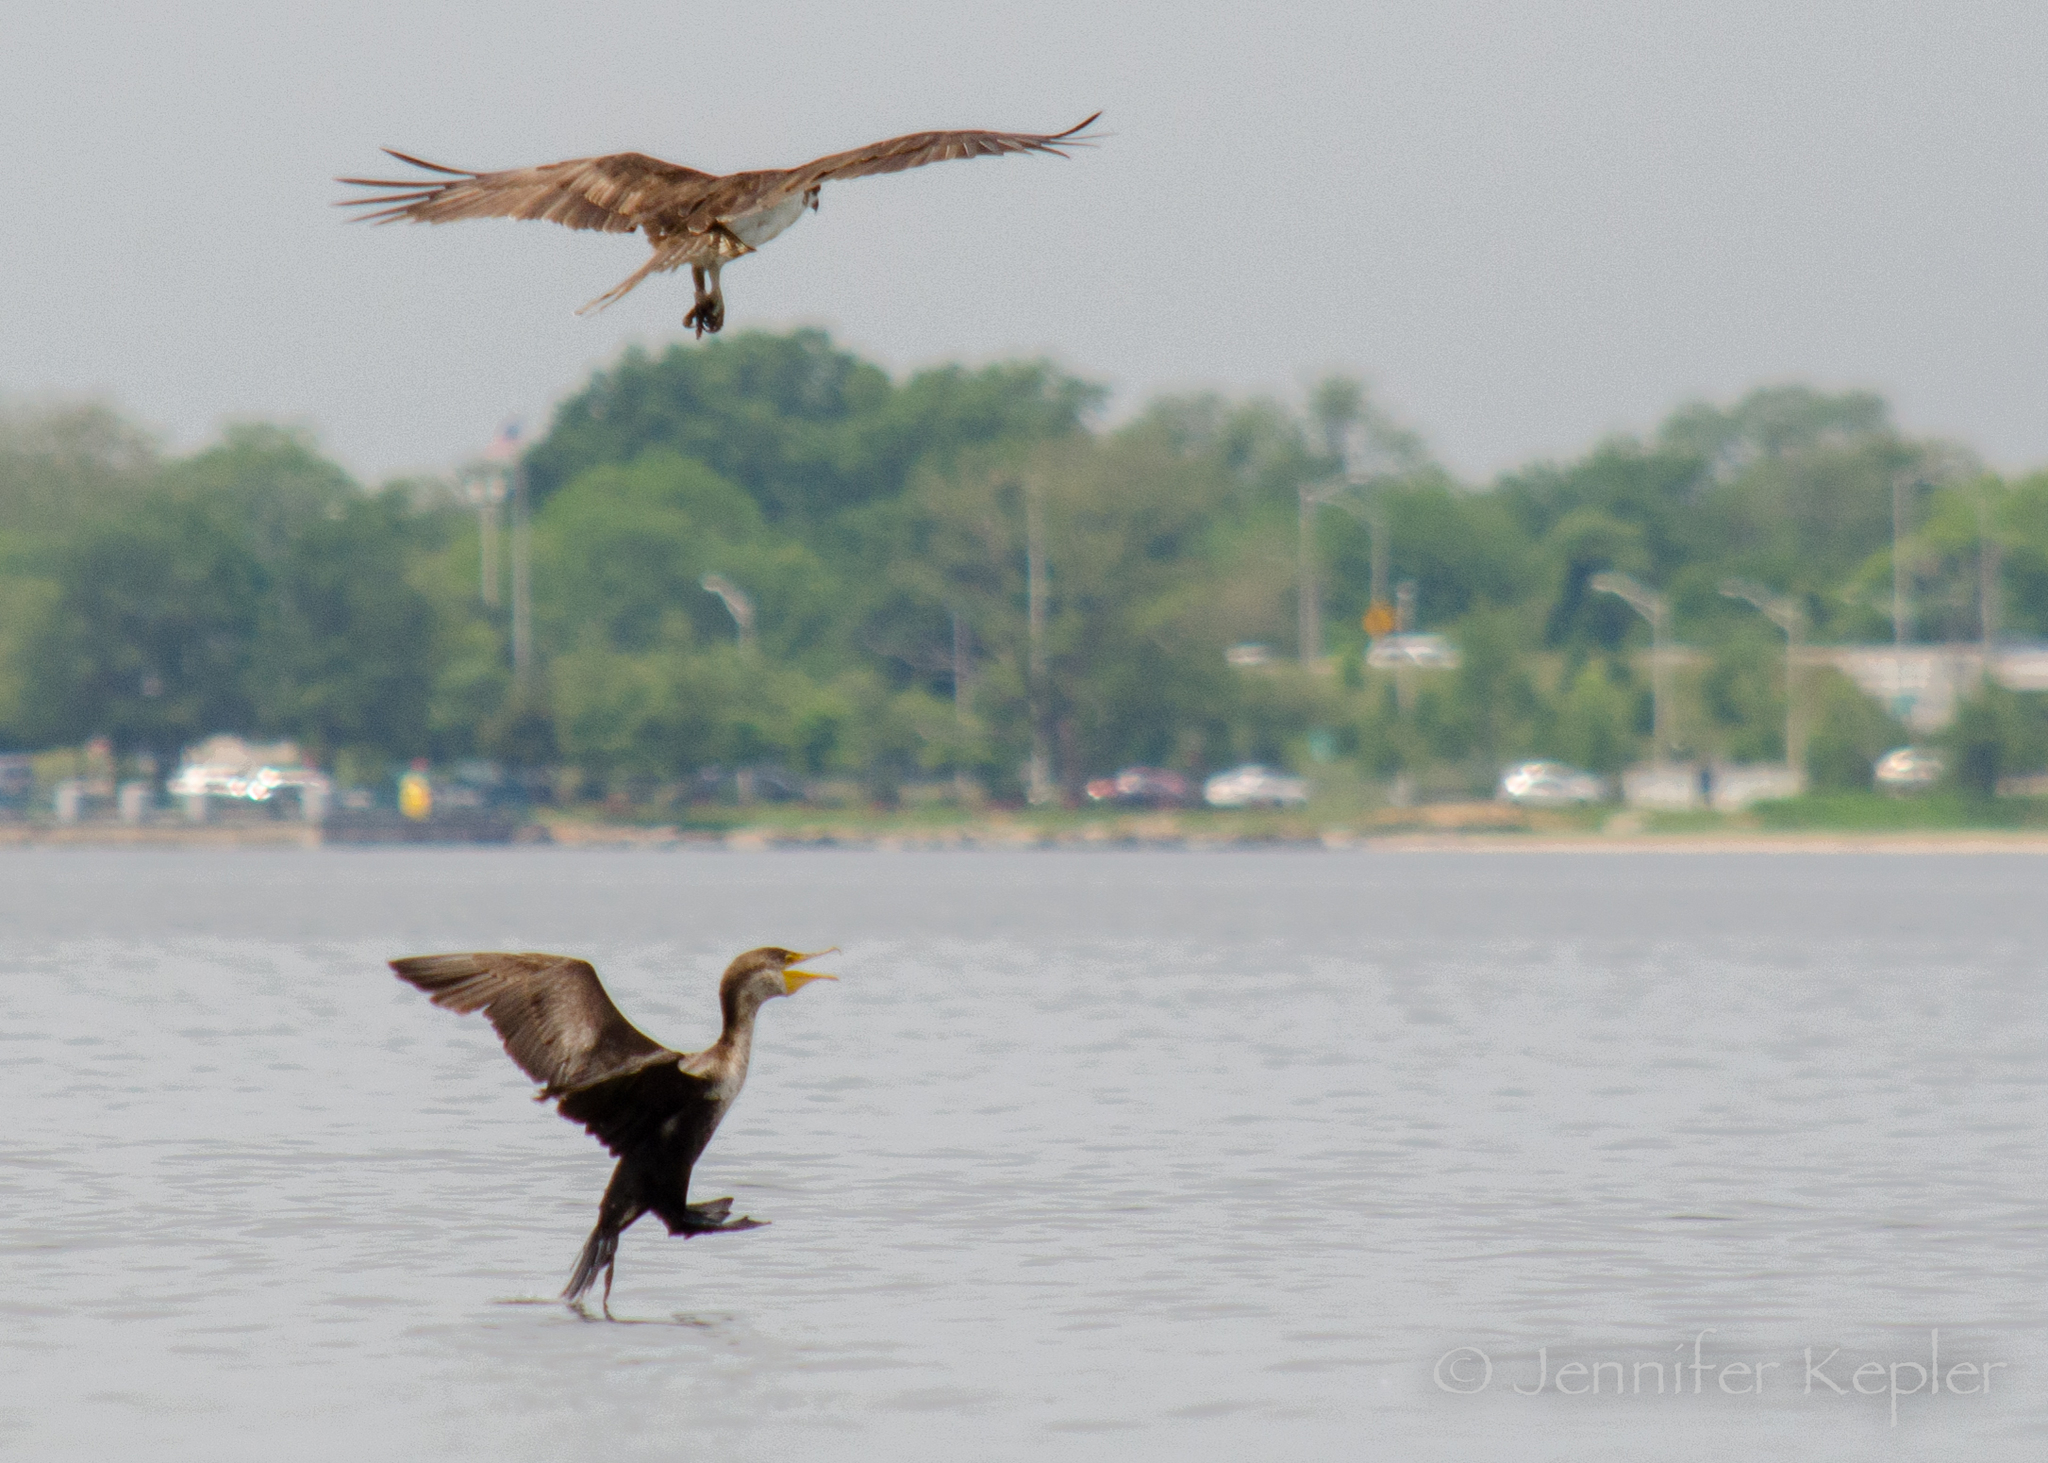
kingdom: Animalia
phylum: Chordata
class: Aves
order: Suliformes
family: Phalacrocoracidae
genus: Phalacrocorax
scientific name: Phalacrocorax auritus
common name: Double-crested cormorant
